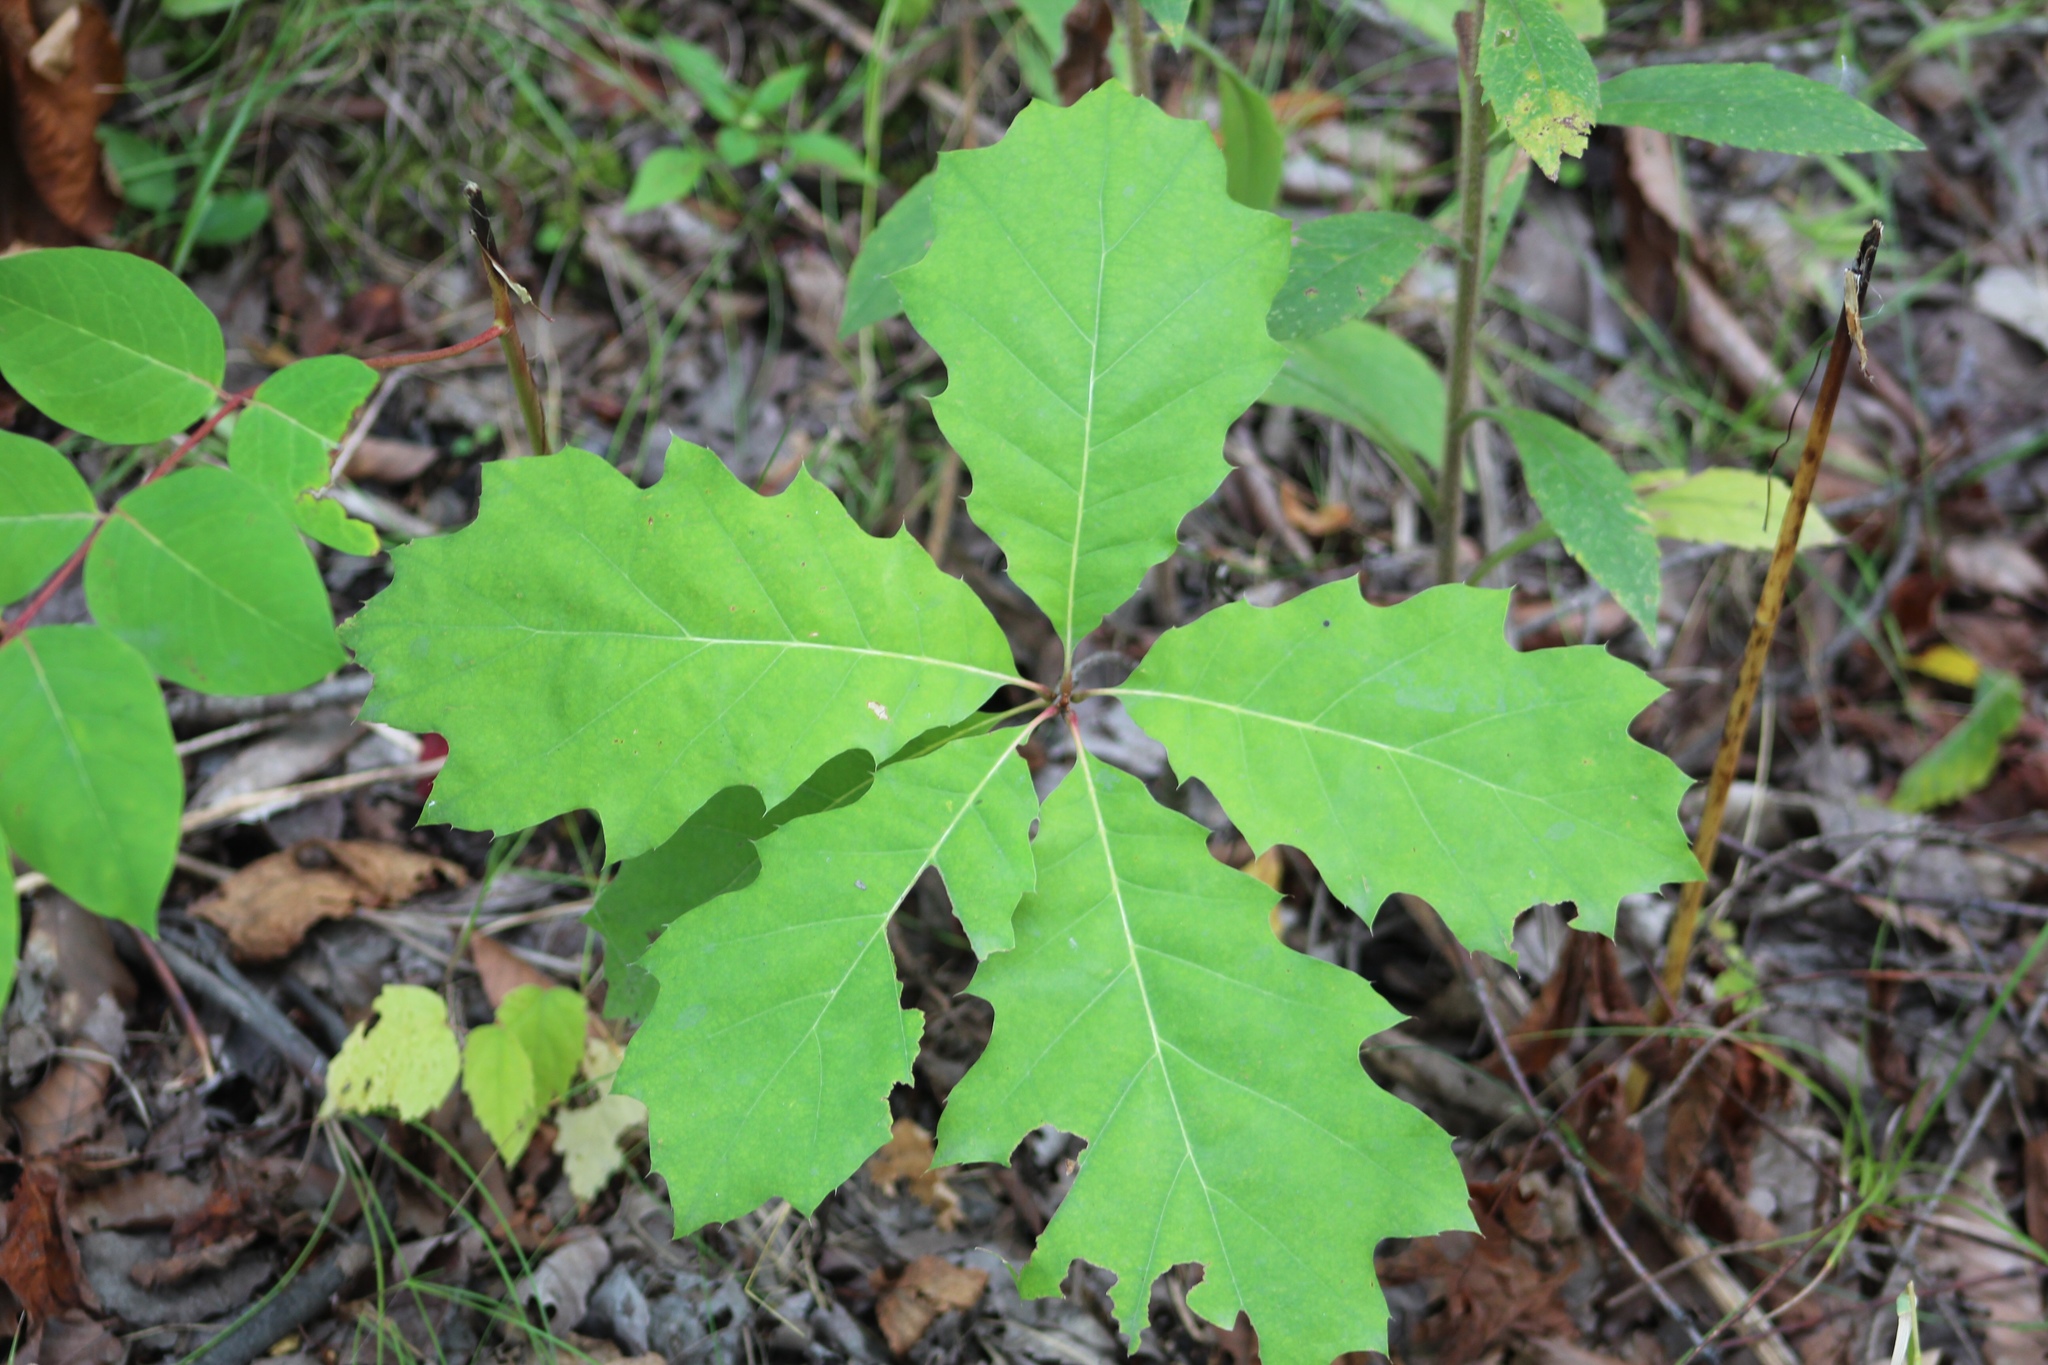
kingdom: Plantae
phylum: Tracheophyta
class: Magnoliopsida
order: Fagales
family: Fagaceae
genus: Quercus
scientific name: Quercus rubra
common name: Red oak
